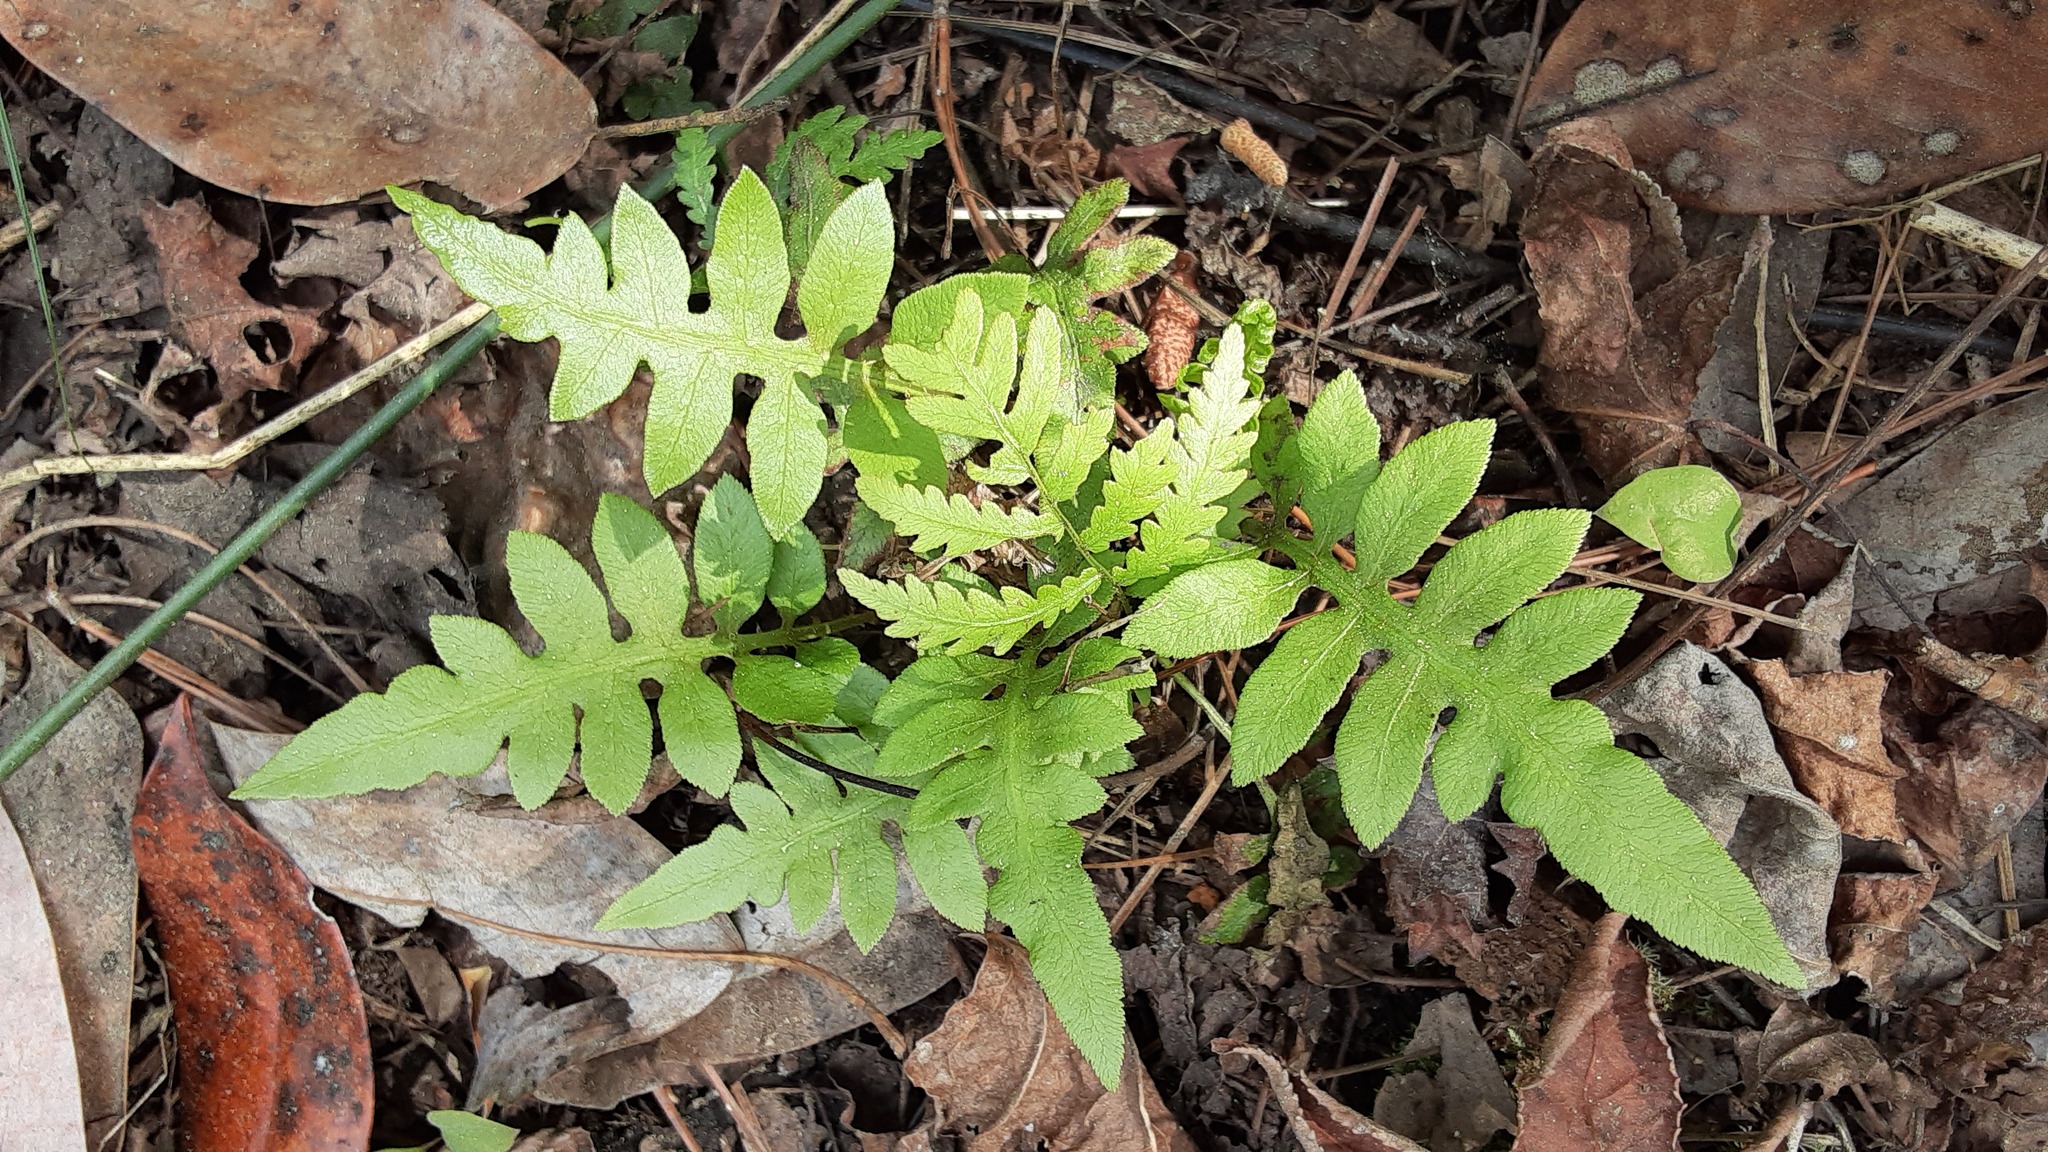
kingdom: Plantae
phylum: Tracheophyta
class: Polypodiopsida
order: Polypodiales
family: Blechnaceae
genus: Lorinseria
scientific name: Lorinseria areolata
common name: Dwarf chain fern
